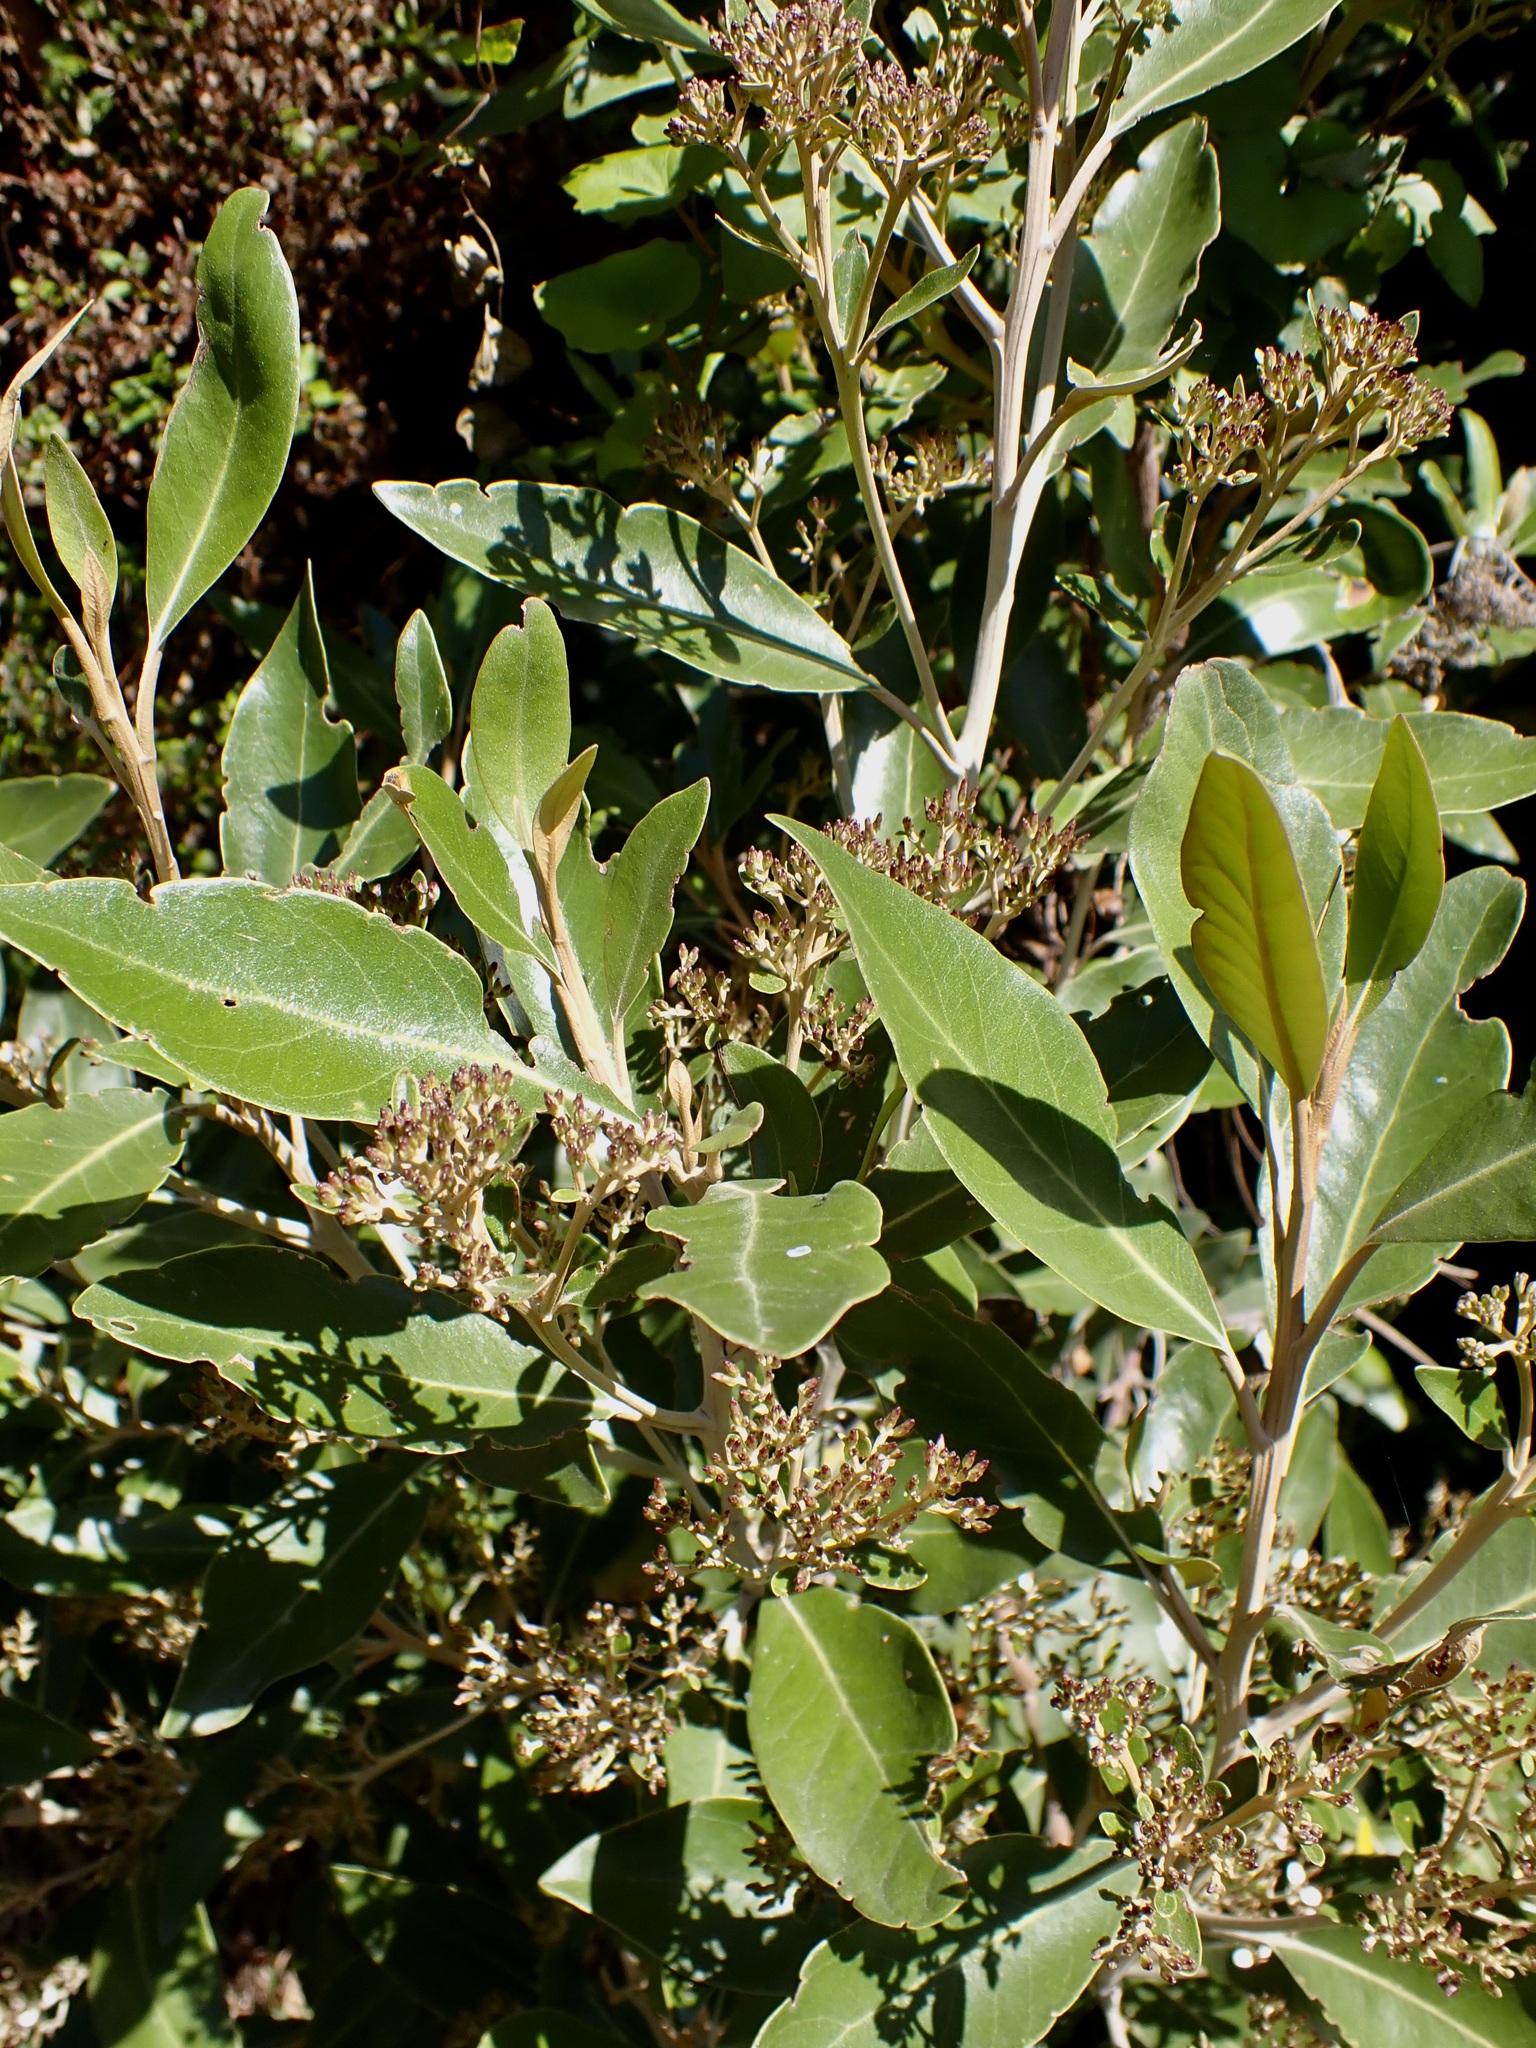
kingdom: Plantae
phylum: Tracheophyta
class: Magnoliopsida
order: Asterales
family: Asteraceae
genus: Olearia
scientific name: Olearia avicenniifolia
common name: Mangrove-leaf daisybush
